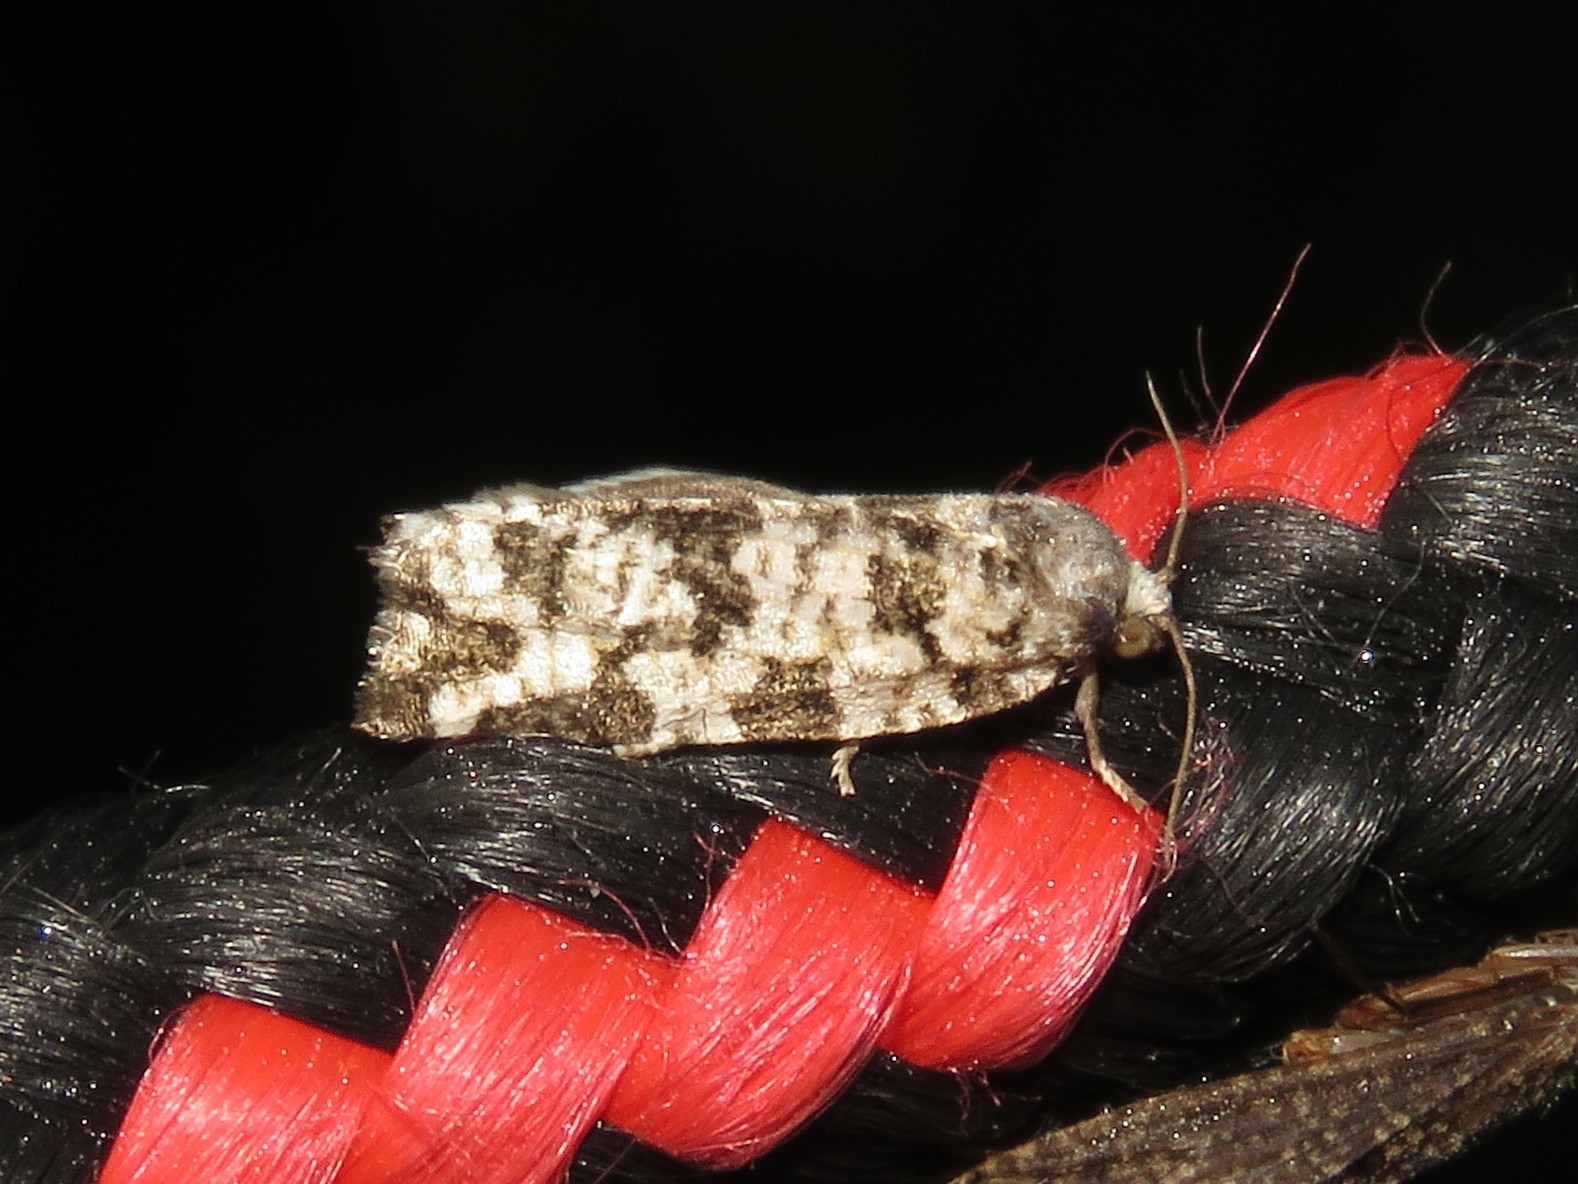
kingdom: Animalia
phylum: Arthropoda
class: Insecta
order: Lepidoptera
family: Tortricidae
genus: Archips
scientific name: Archips packardiana
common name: Spring spruce needle moth
